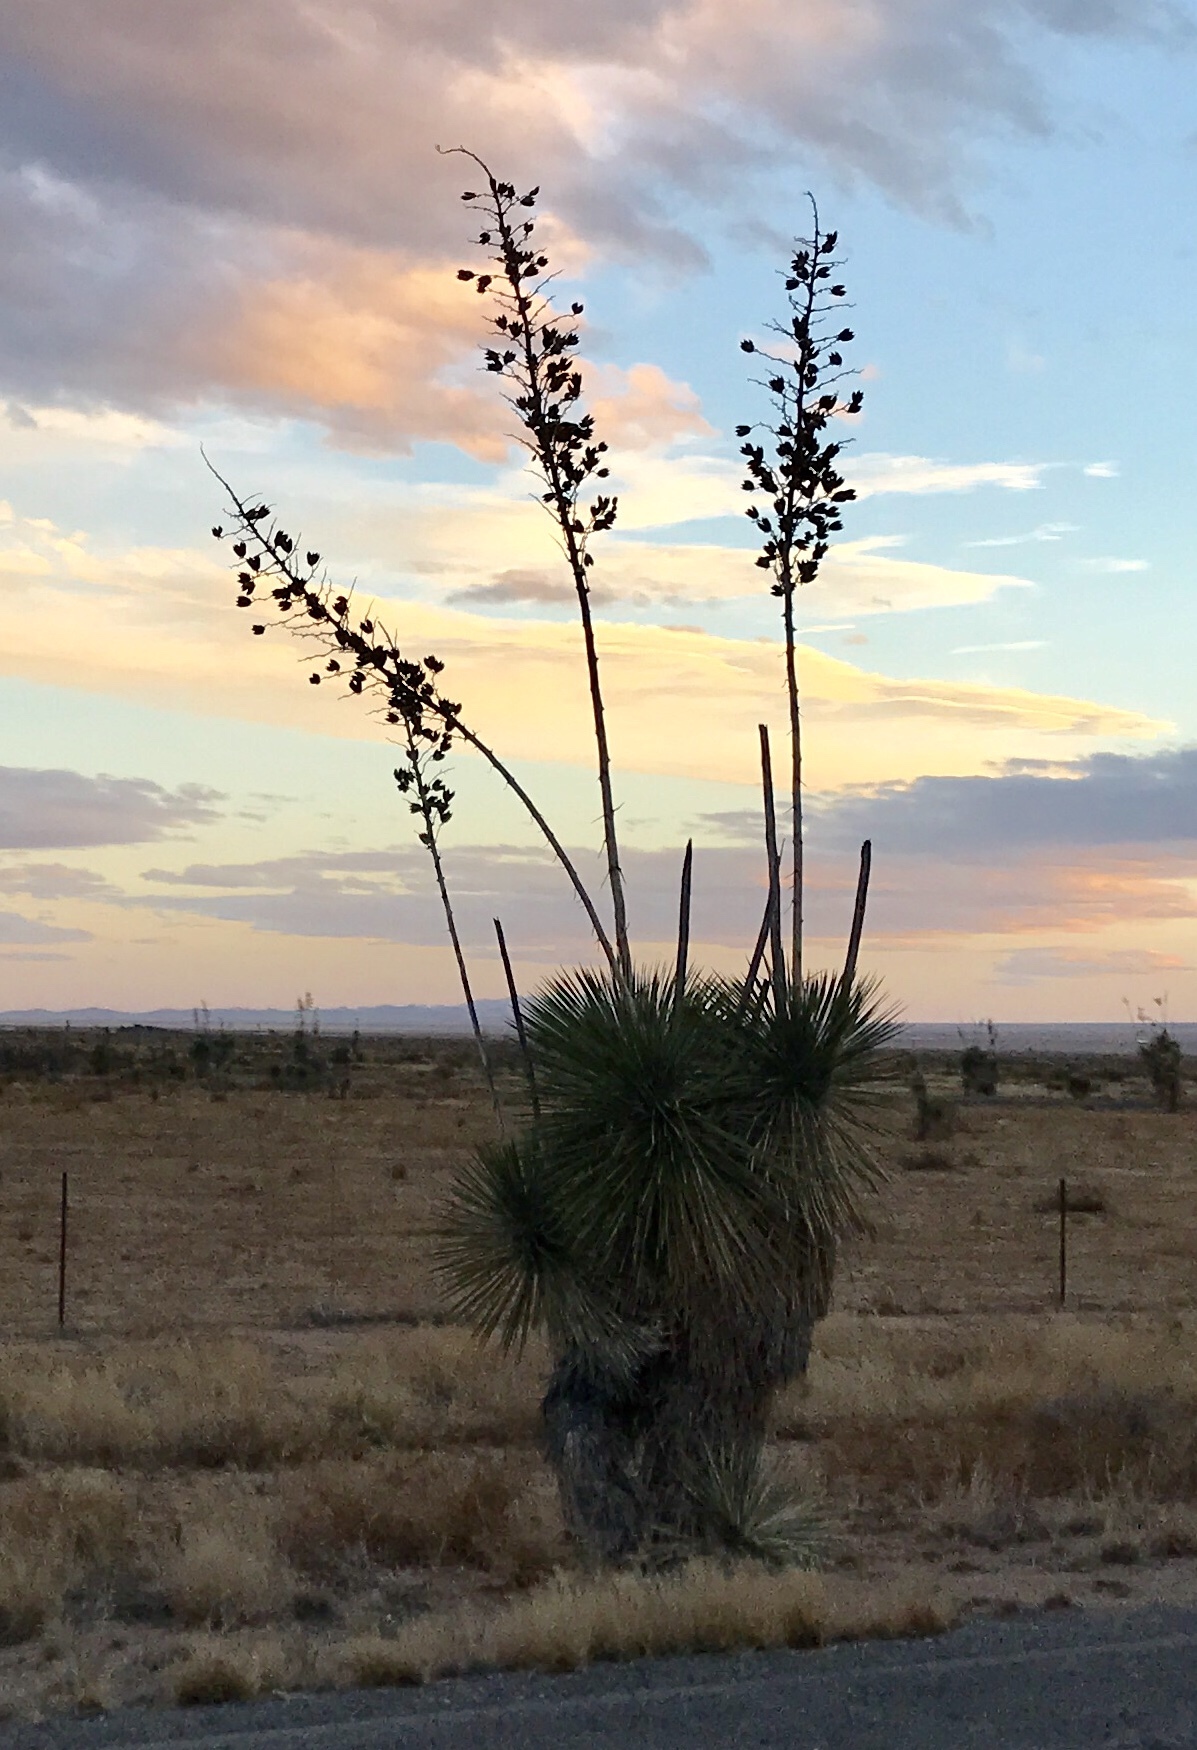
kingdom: Plantae
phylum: Tracheophyta
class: Liliopsida
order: Asparagales
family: Asparagaceae
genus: Yucca
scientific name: Yucca elata
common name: Palmella
